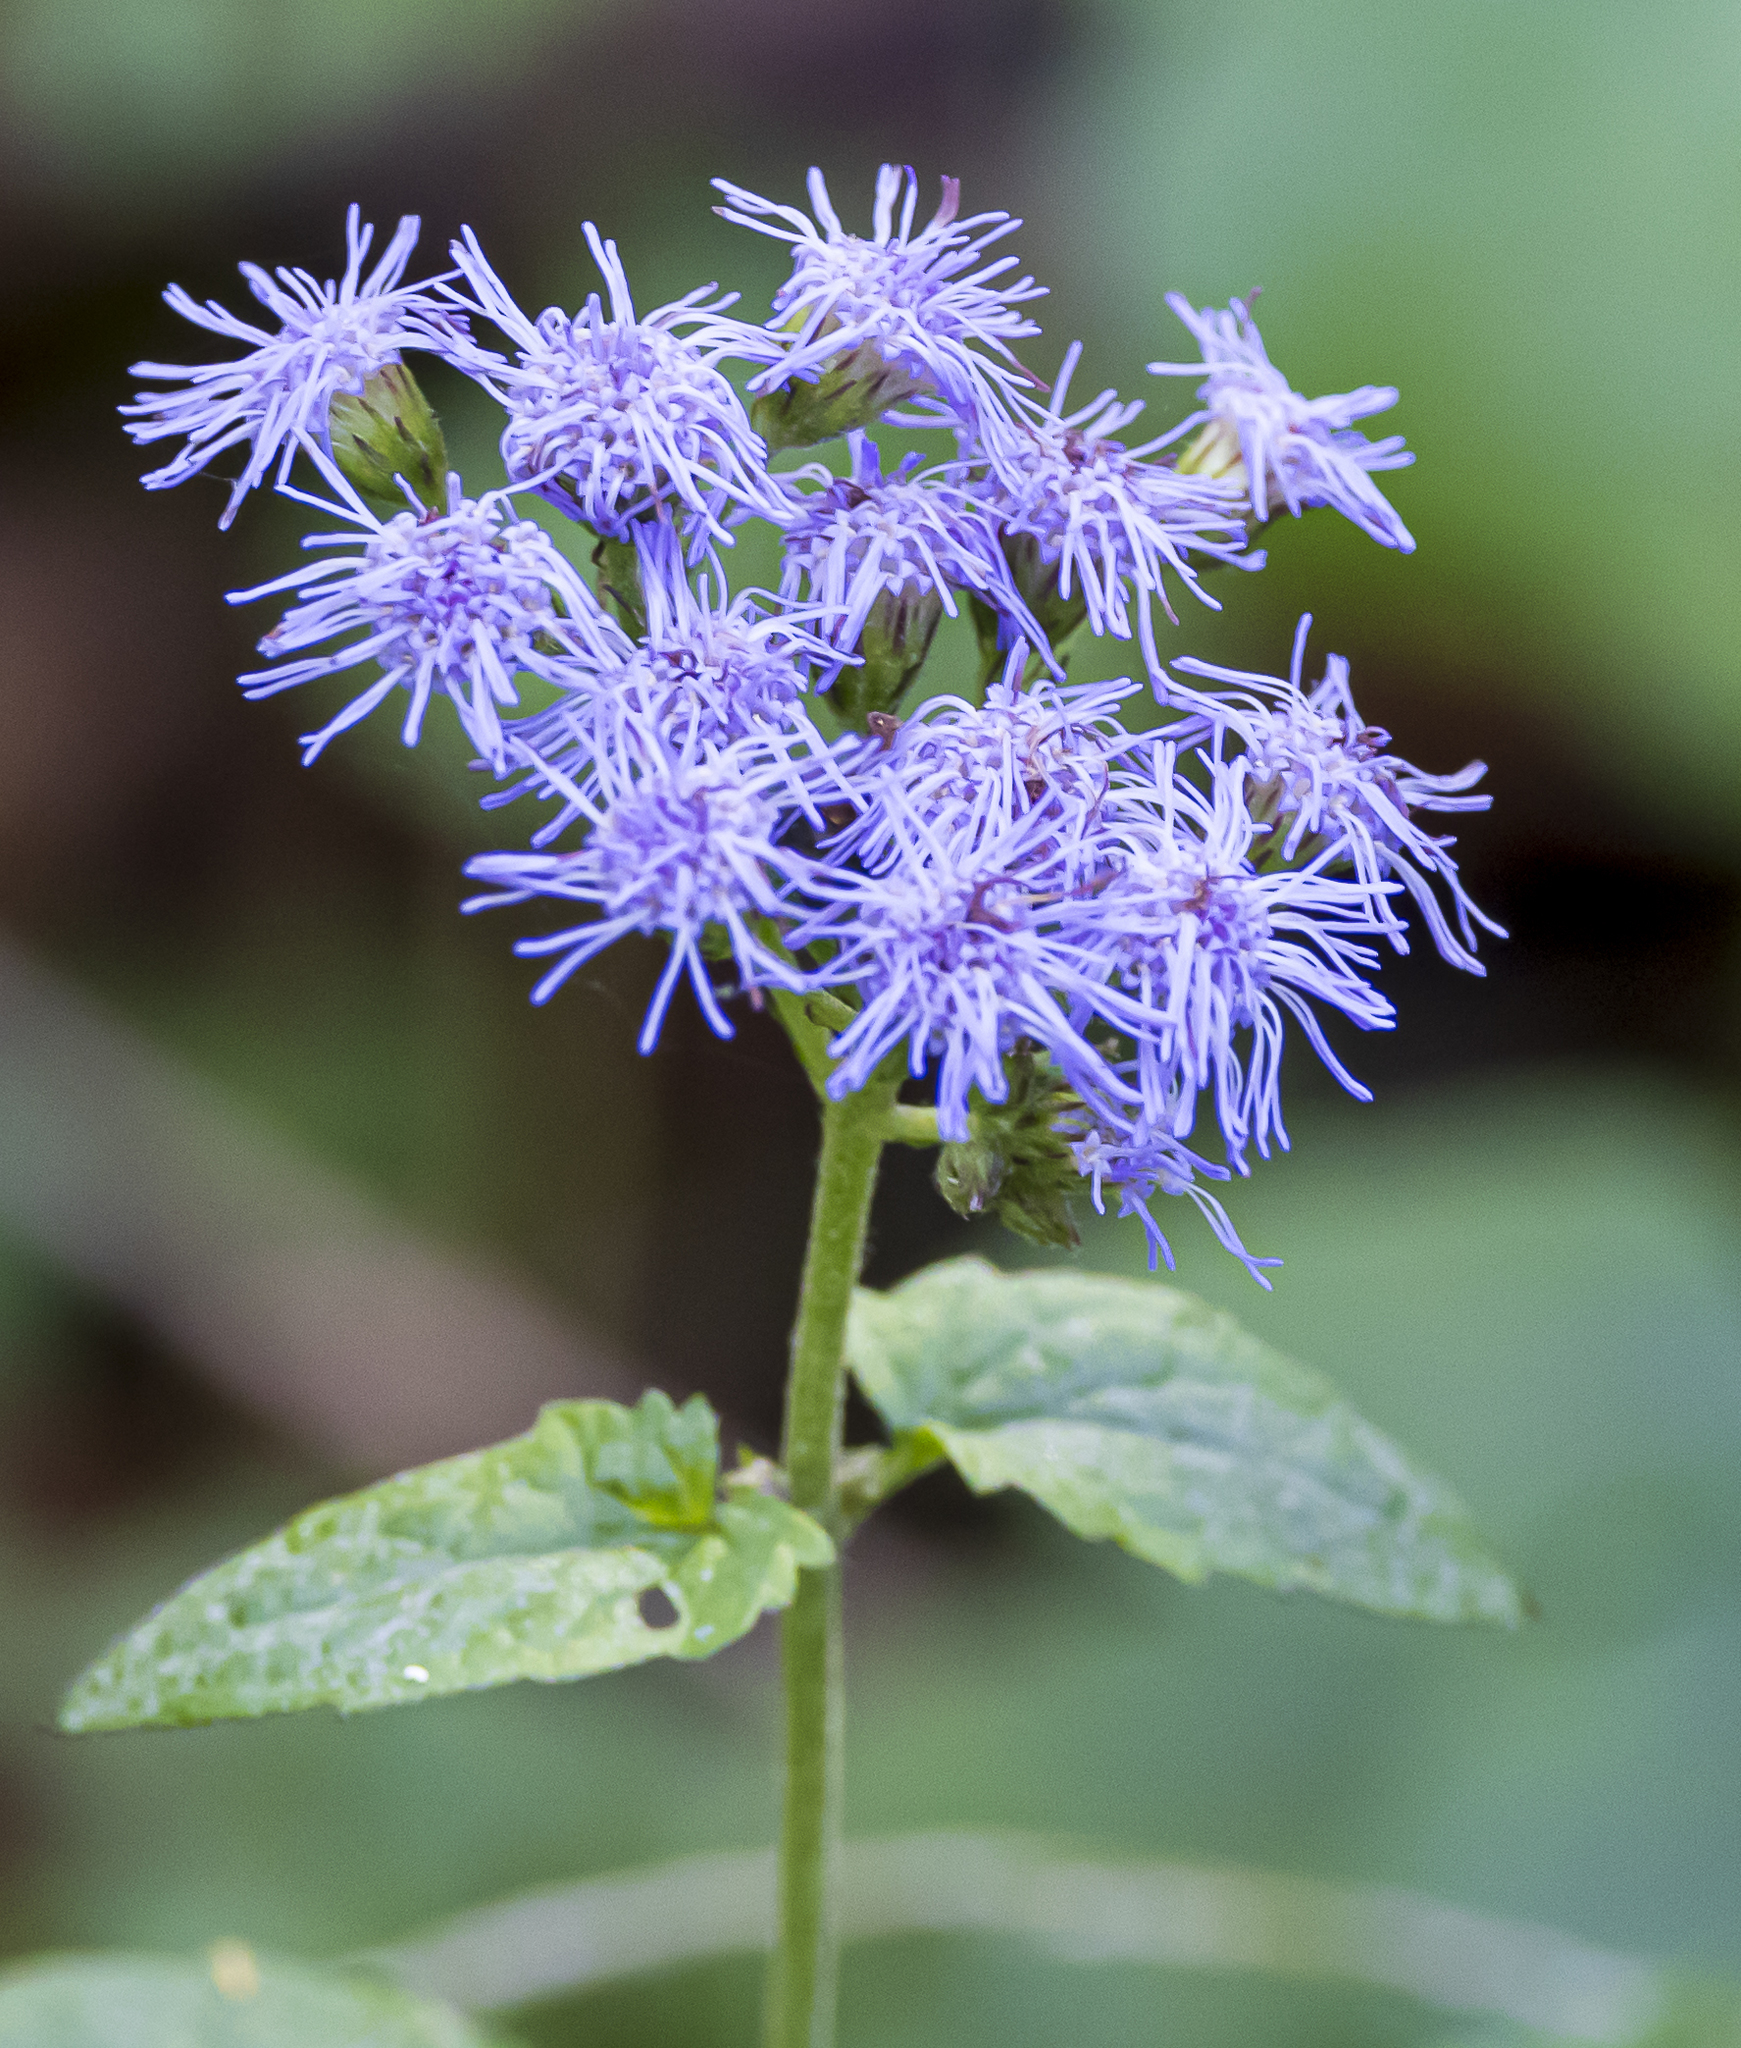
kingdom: Plantae
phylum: Tracheophyta
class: Magnoliopsida
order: Asterales
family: Asteraceae
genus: Conoclinium
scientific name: Conoclinium coelestinum
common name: Blue mistflower
